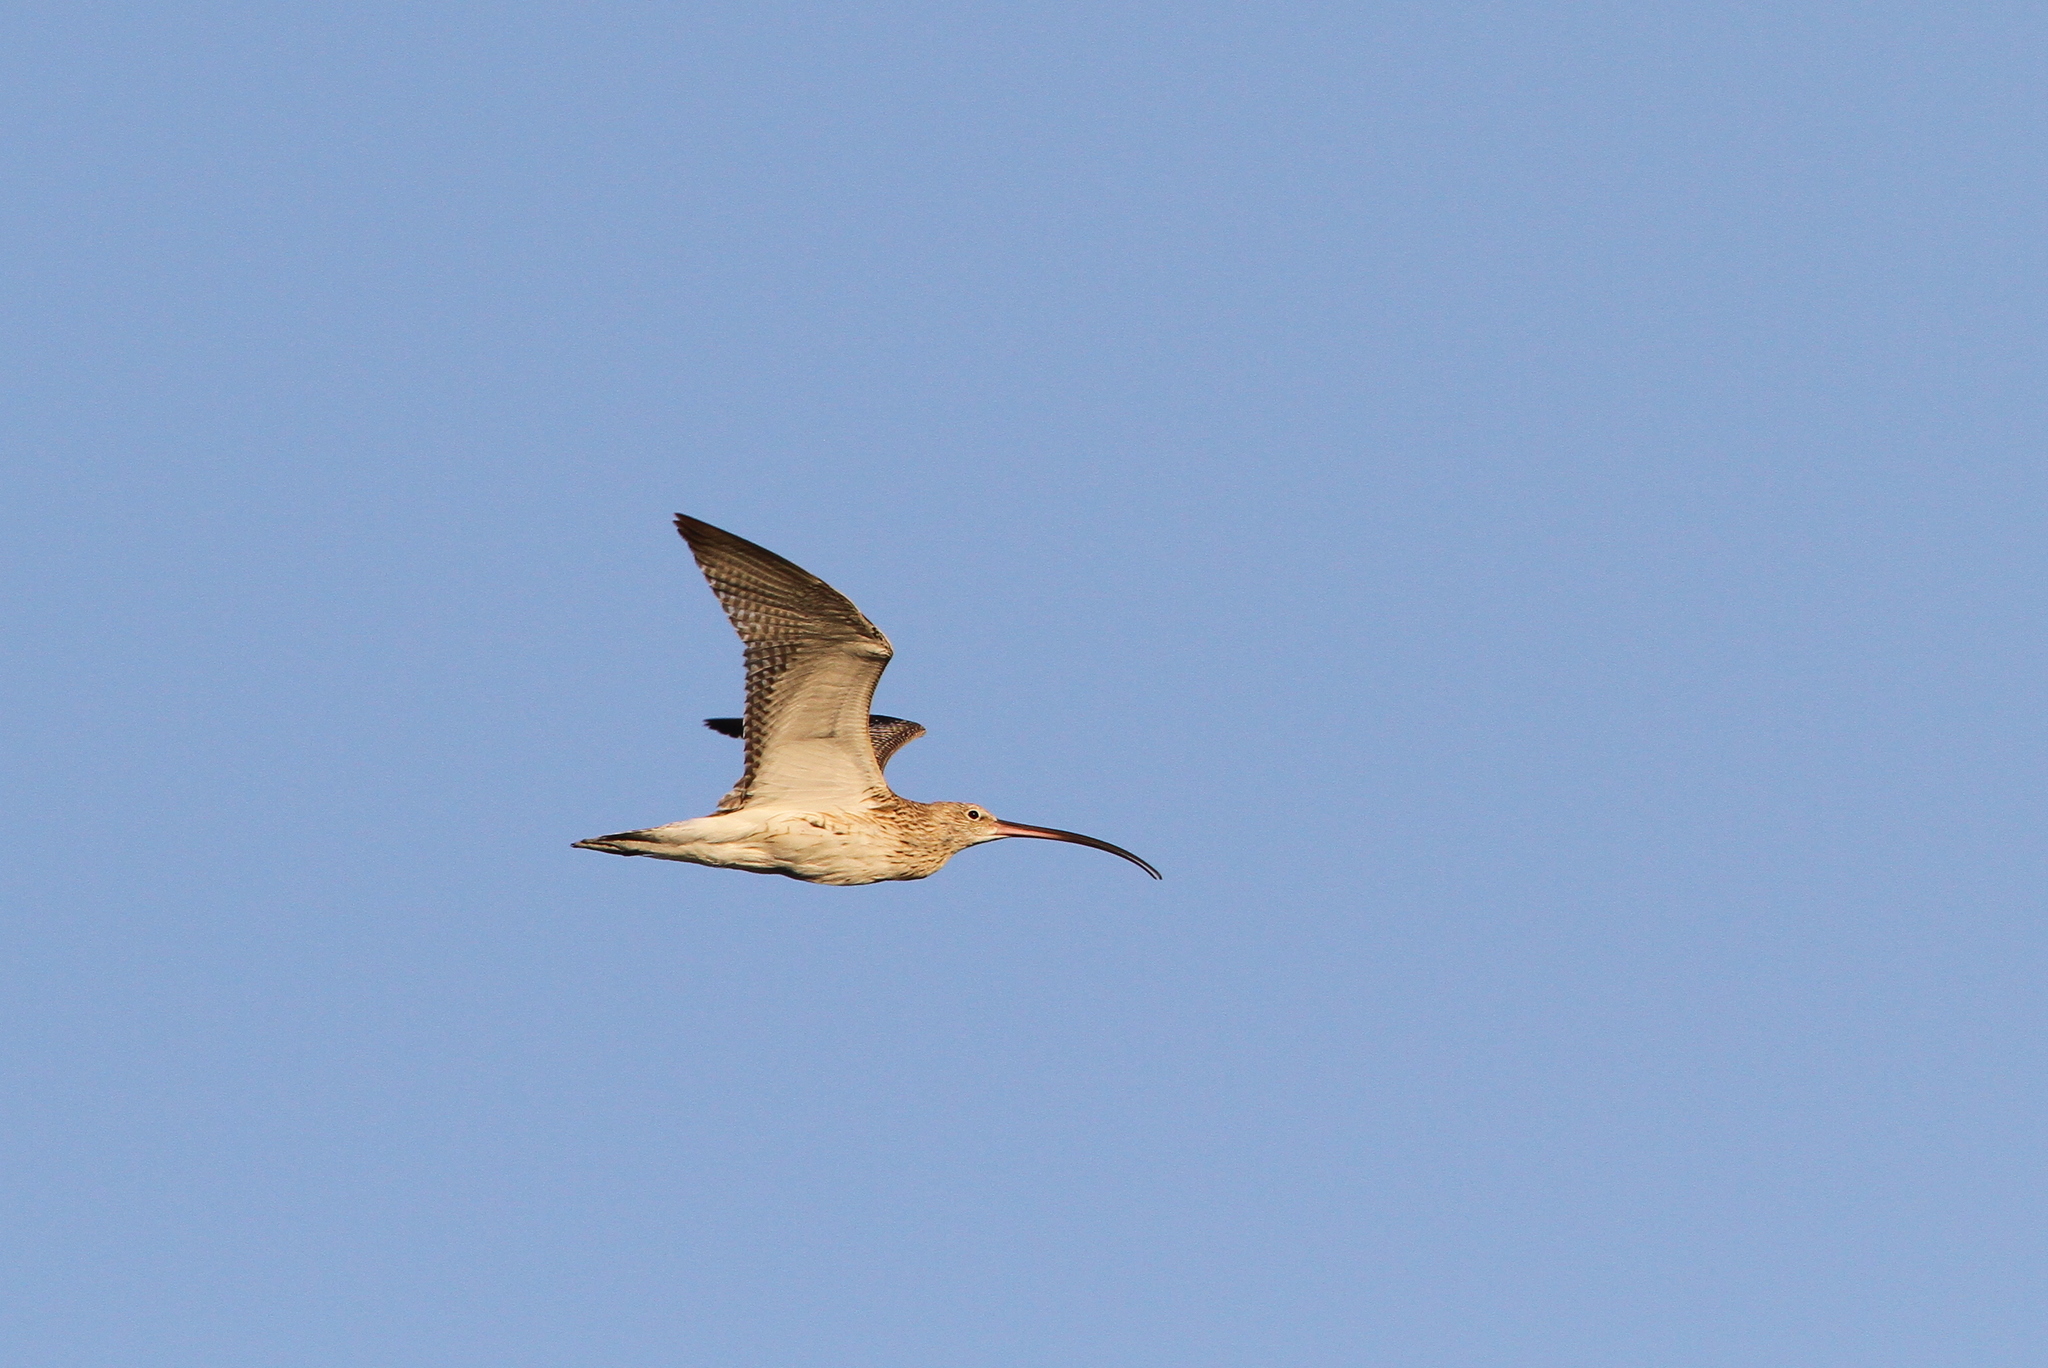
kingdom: Animalia
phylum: Chordata
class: Aves
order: Charadriiformes
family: Scolopacidae
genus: Numenius
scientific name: Numenius arquata
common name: Eurasian curlew
